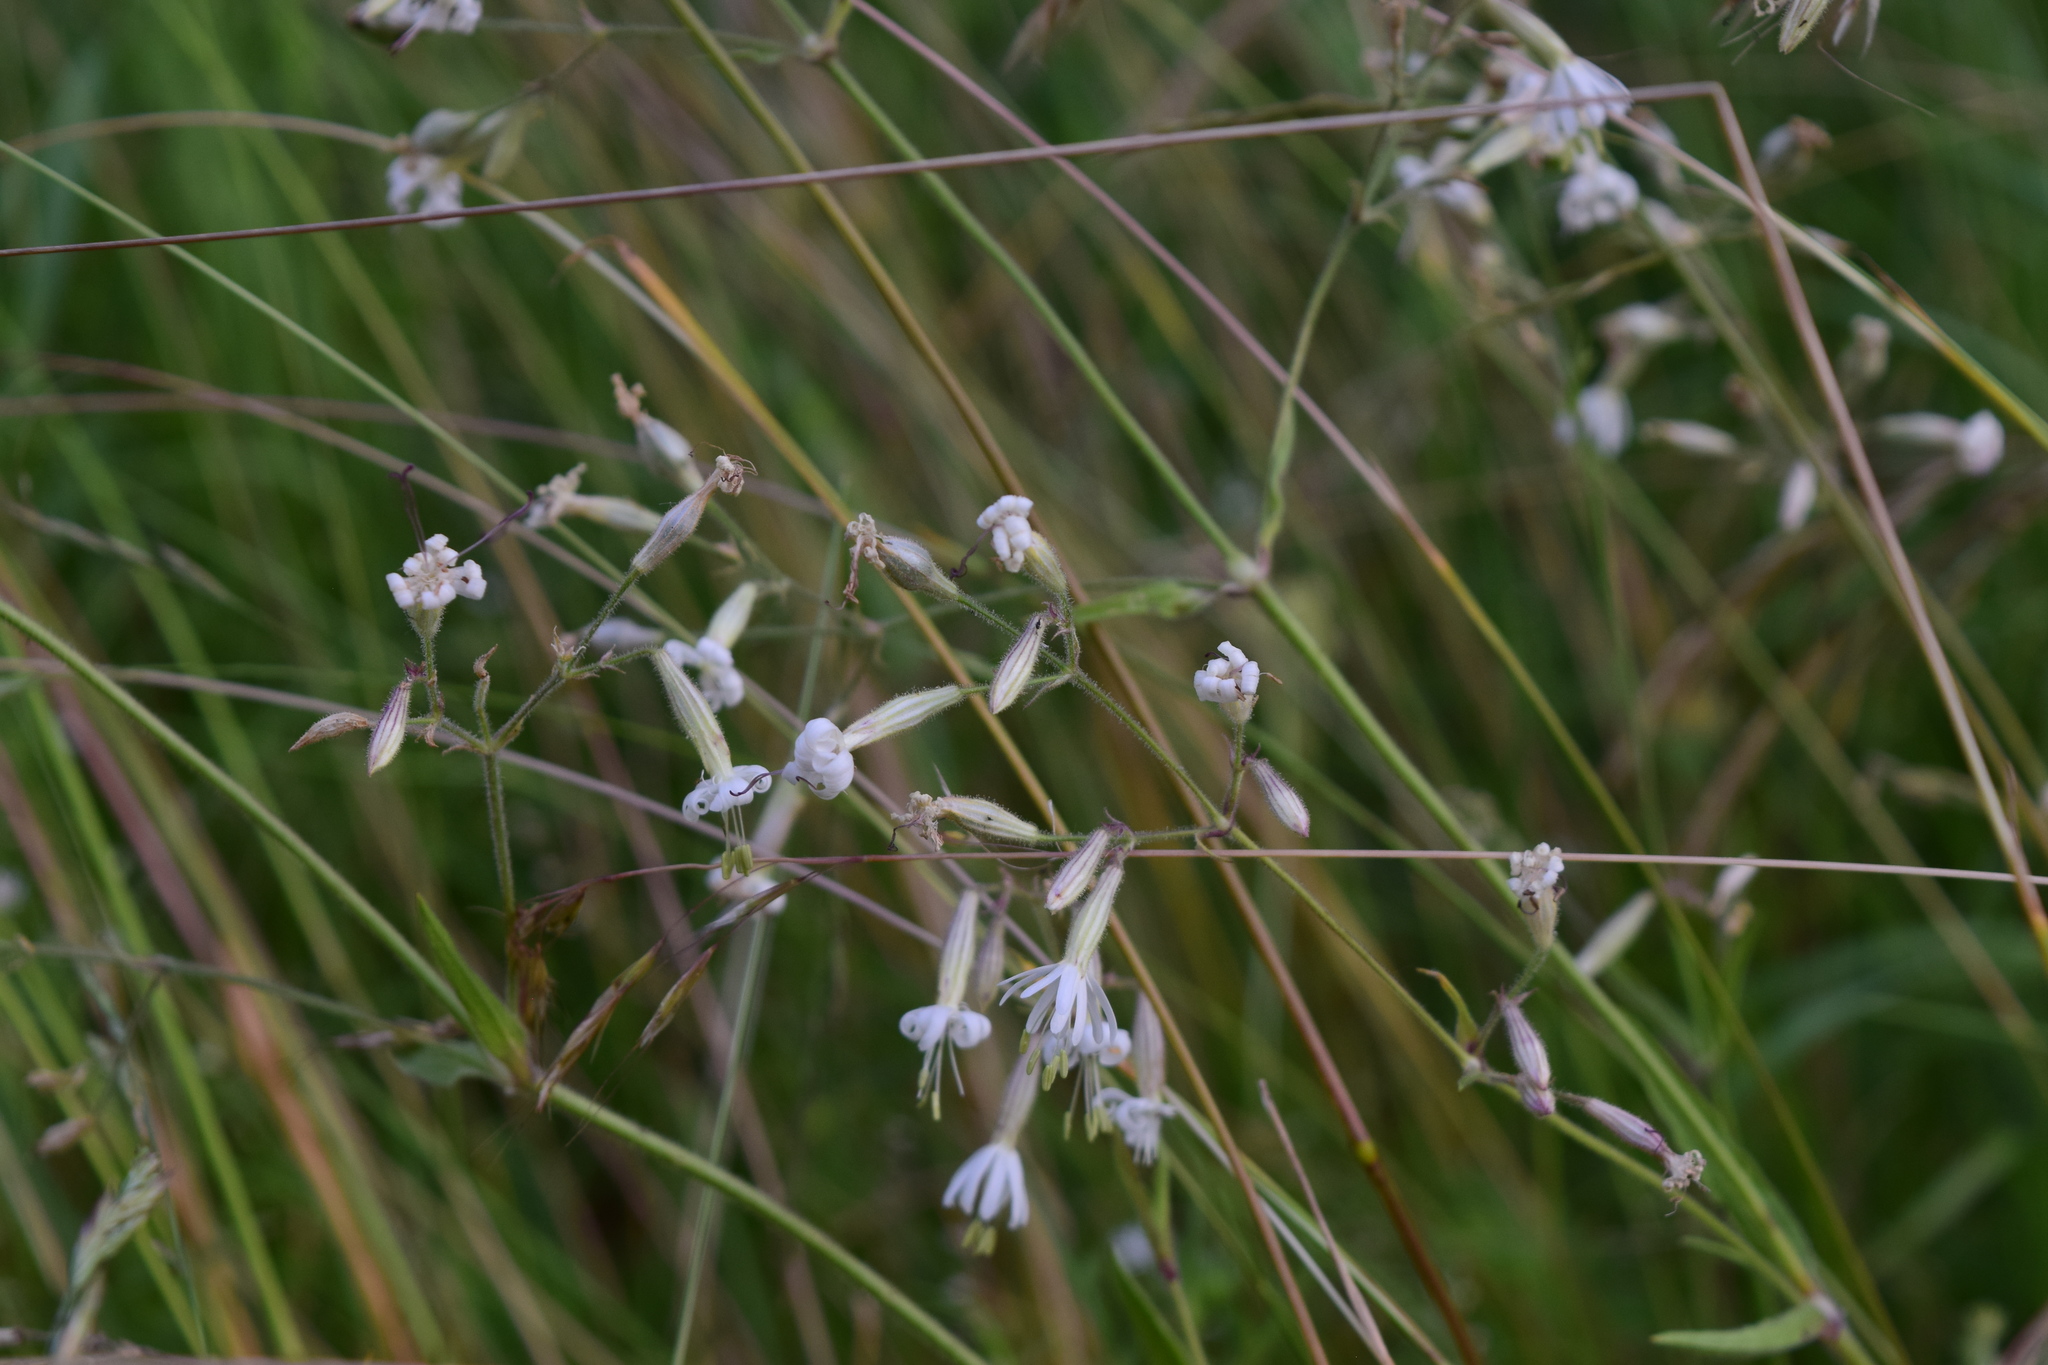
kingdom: Plantae
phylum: Tracheophyta
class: Magnoliopsida
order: Caryophyllales
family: Caryophyllaceae
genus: Silene
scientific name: Silene nutans
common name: Nottingham catchfly
